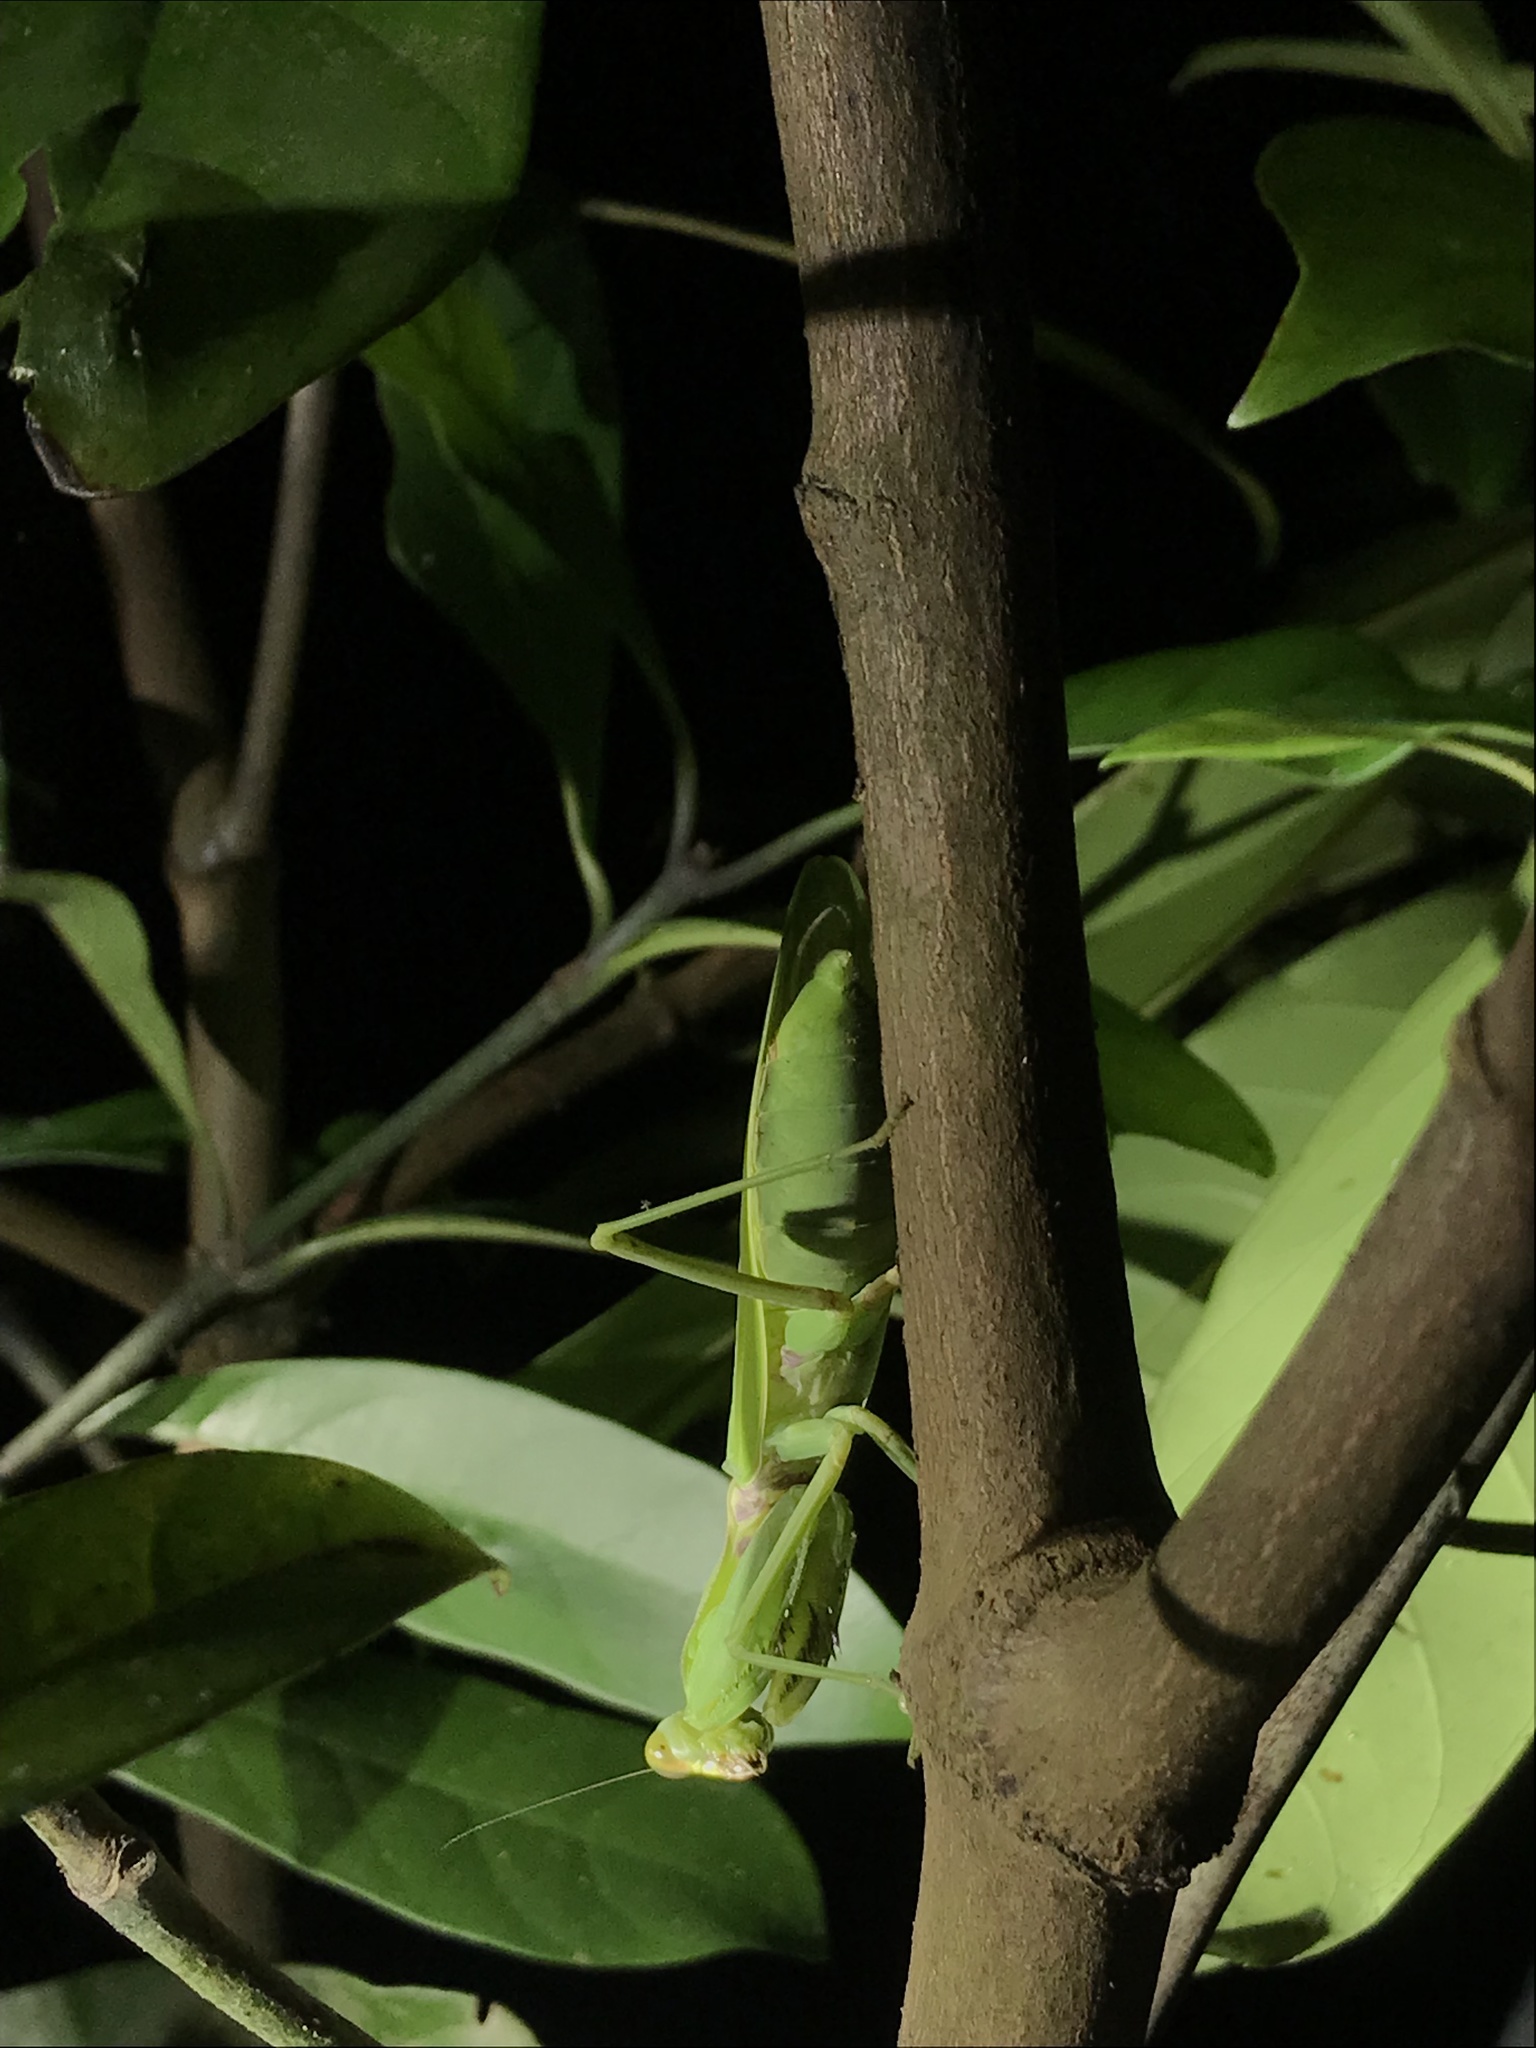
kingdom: Animalia
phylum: Arthropoda
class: Insecta
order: Mantodea
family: Mantidae
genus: Hierodula
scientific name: Hierodula patellifera
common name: Asian mantis
